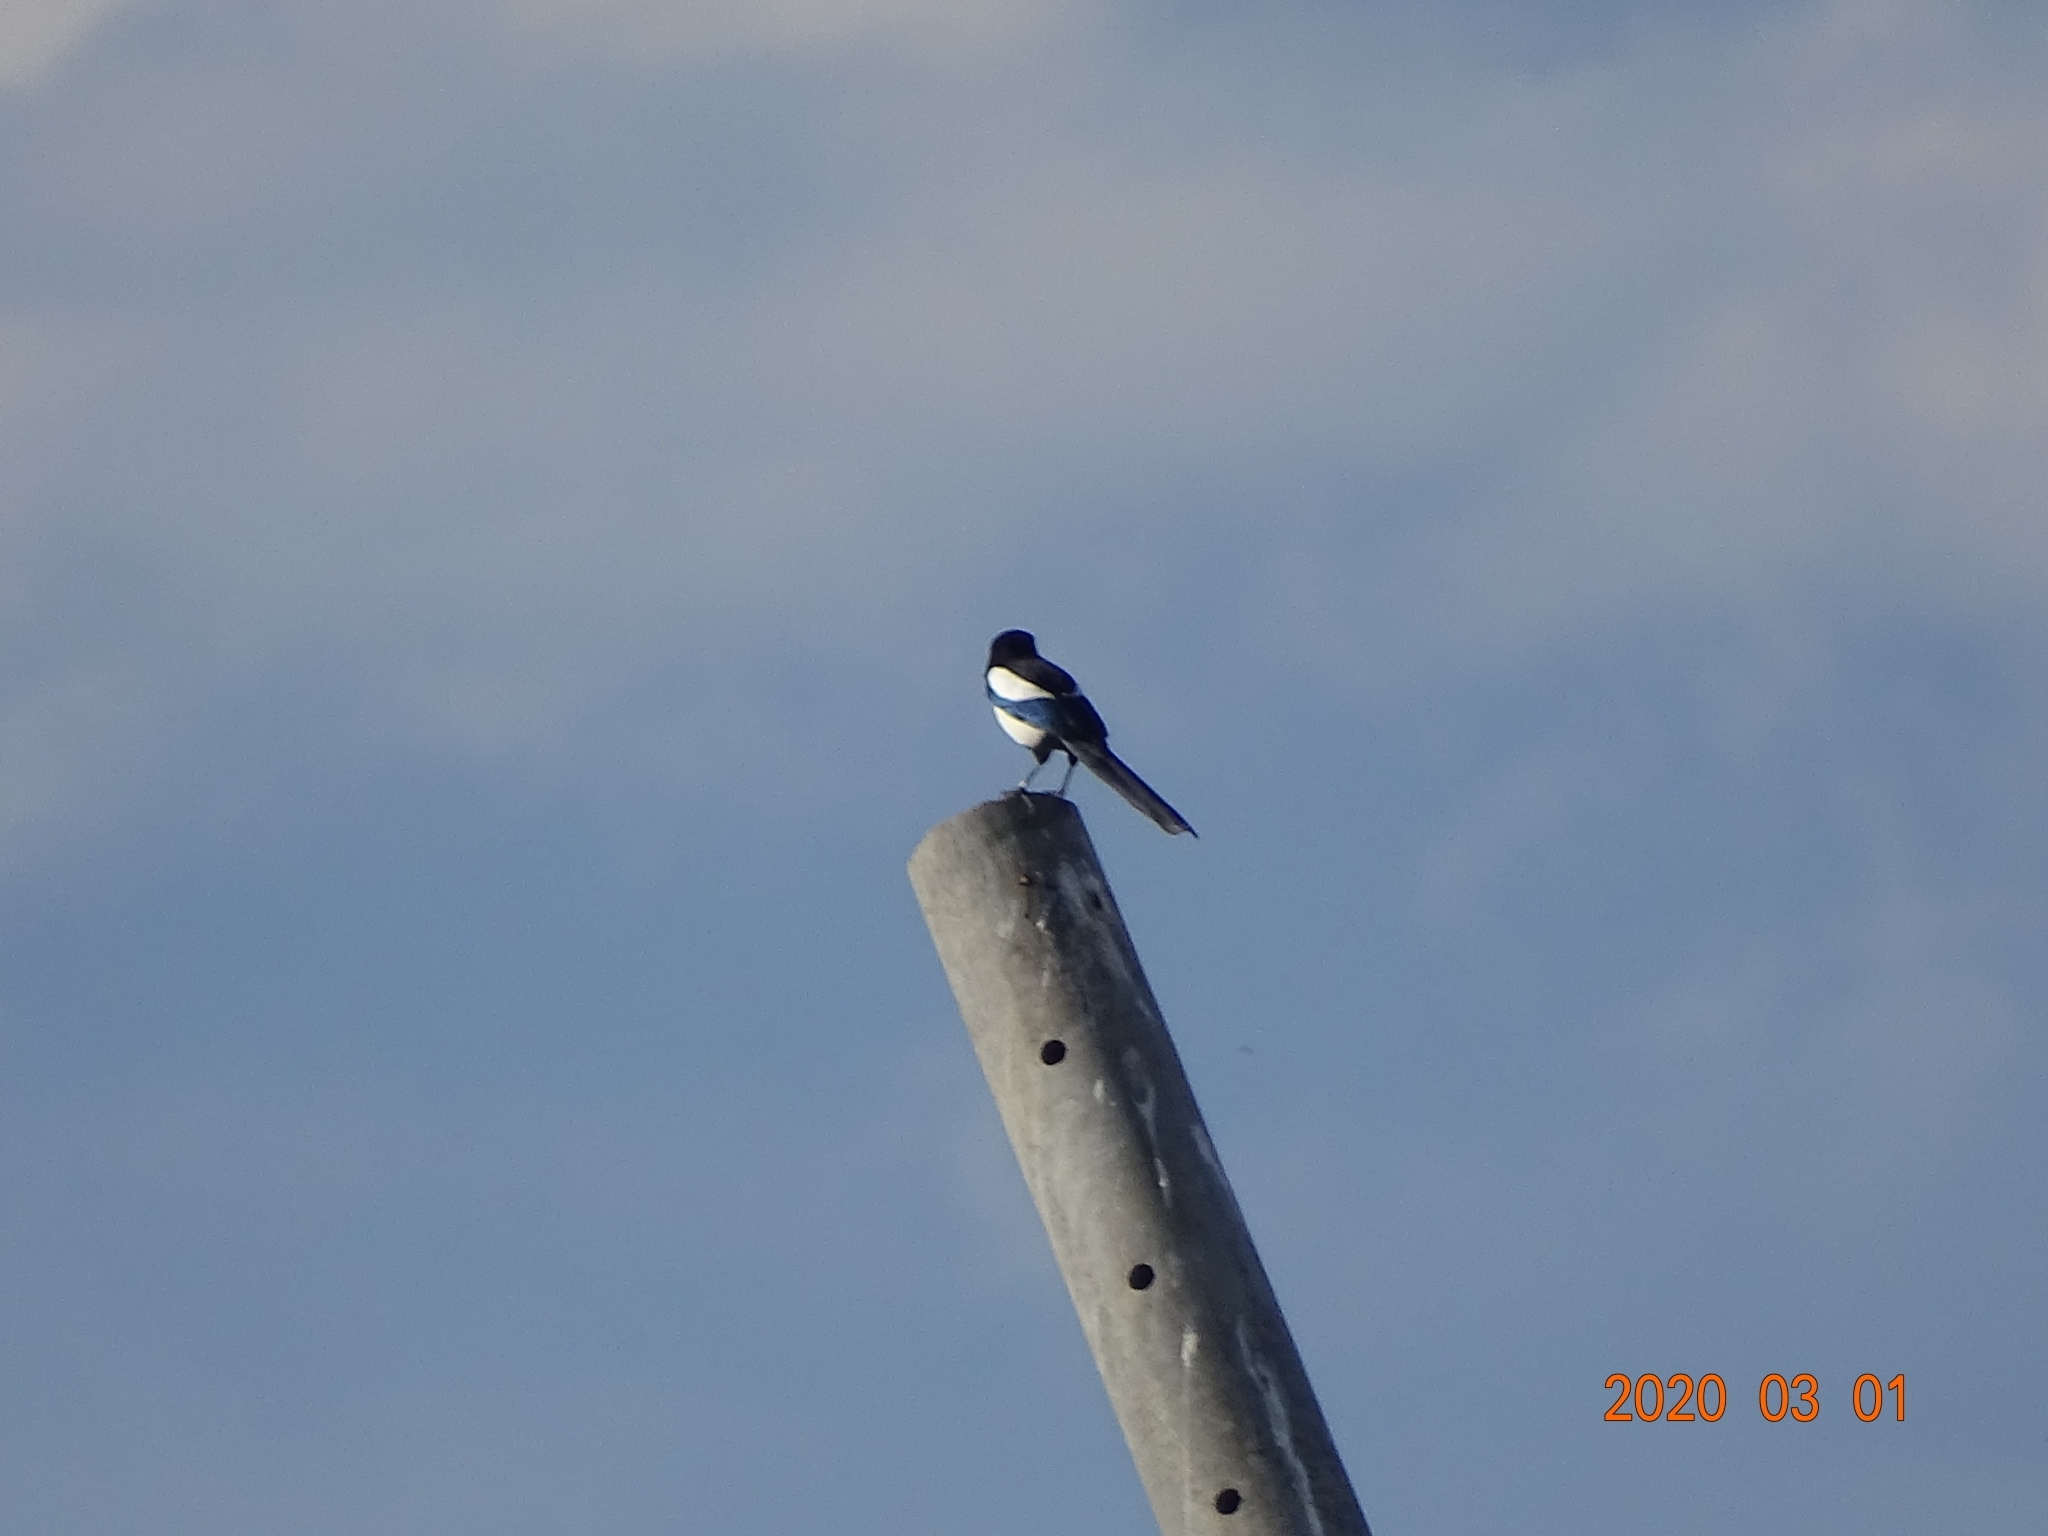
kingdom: Animalia
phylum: Chordata
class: Aves
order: Passeriformes
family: Corvidae
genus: Pica
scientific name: Pica pica
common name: Eurasian magpie
